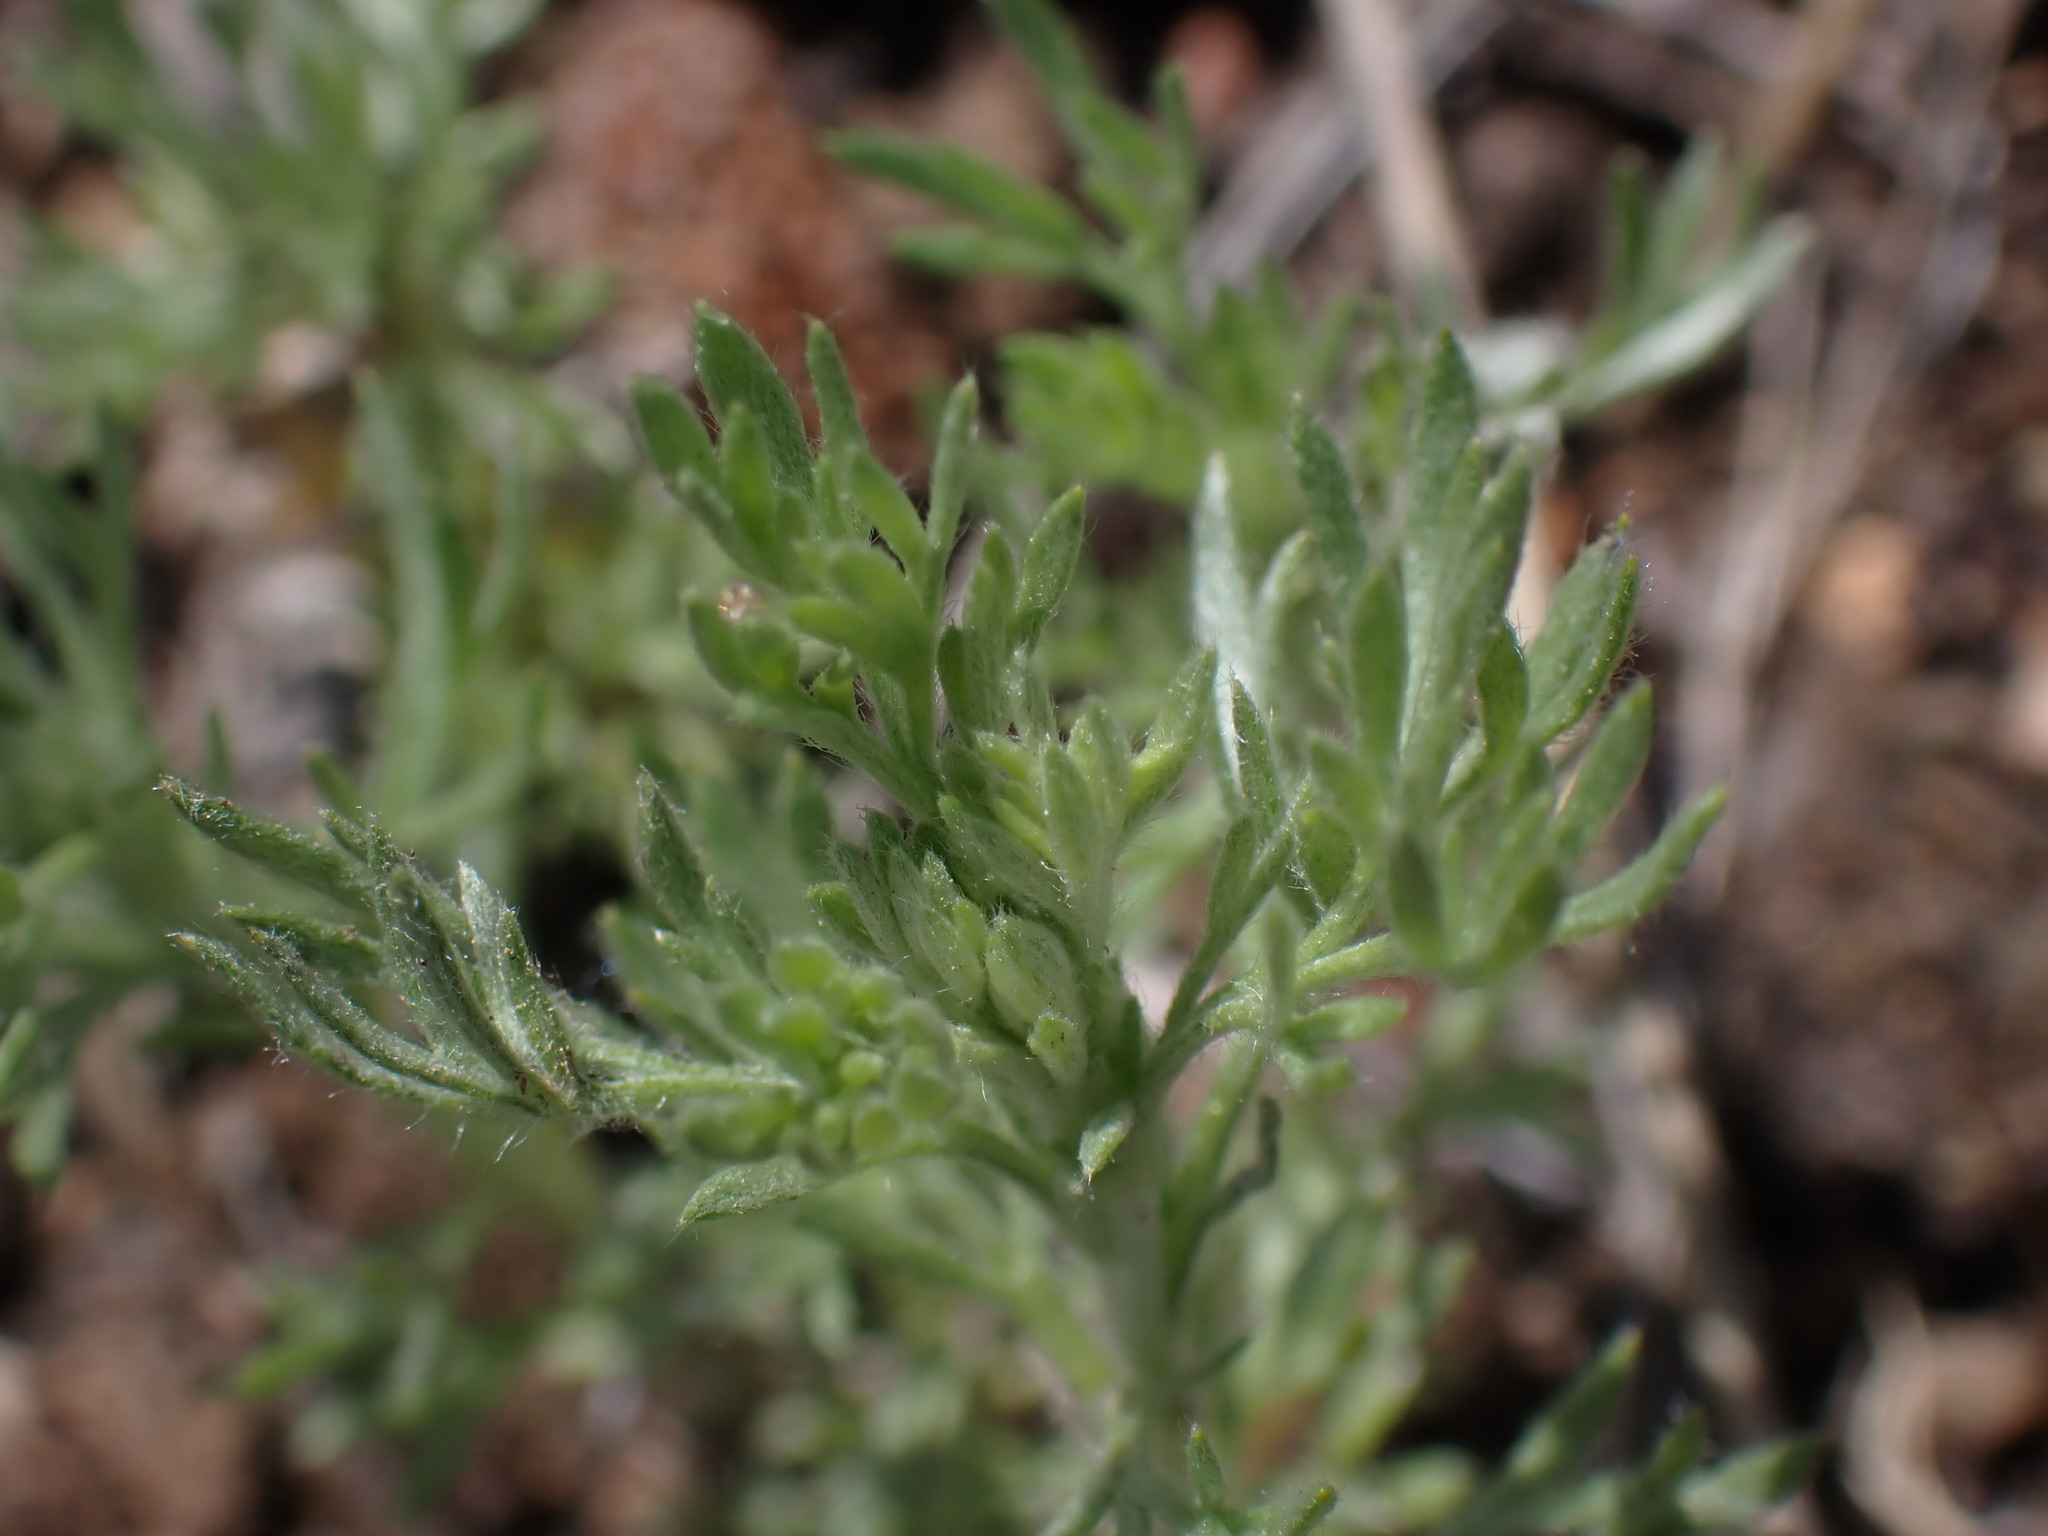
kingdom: Plantae
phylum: Tracheophyta
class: Magnoliopsida
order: Asterales
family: Asteraceae
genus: Artemisia
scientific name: Artemisia frigida
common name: Prairie sagewort
